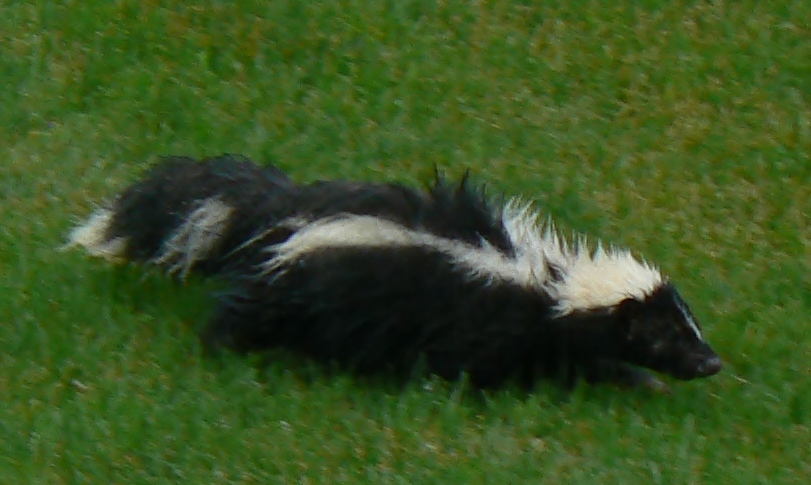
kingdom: Animalia
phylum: Chordata
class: Mammalia
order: Carnivora
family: Mephitidae
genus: Mephitis
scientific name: Mephitis mephitis
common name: Striped skunk
